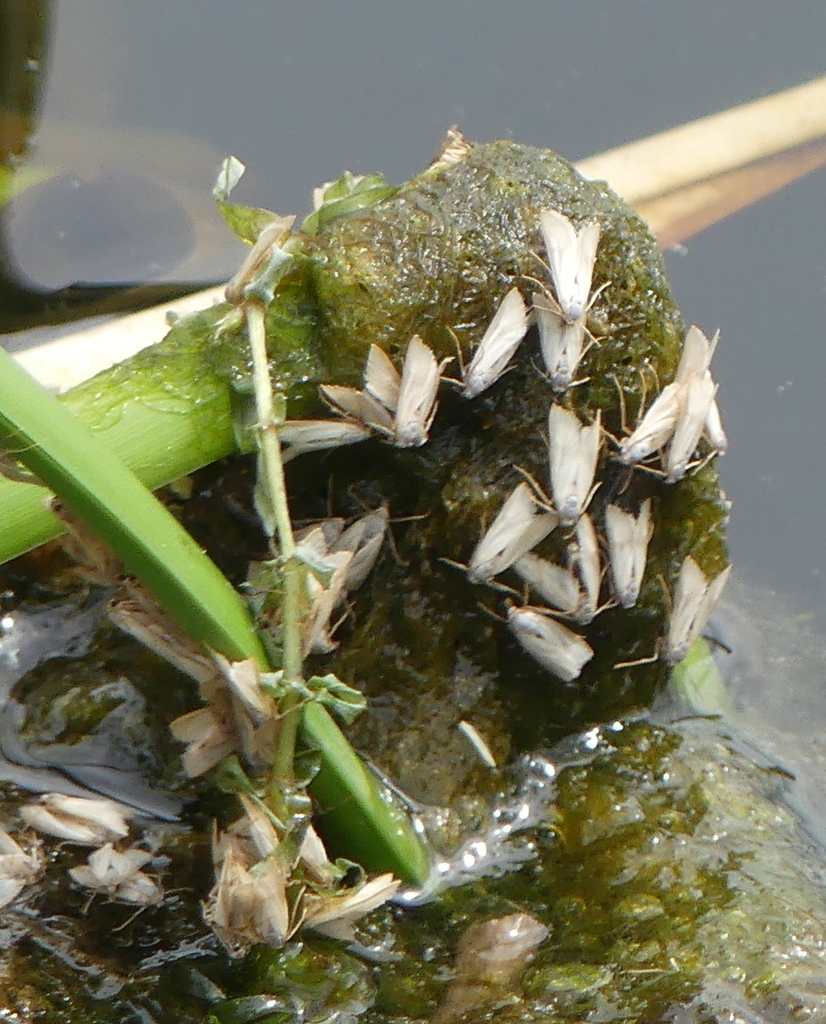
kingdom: Animalia
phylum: Arthropoda
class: Insecta
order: Lepidoptera
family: Crambidae
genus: Acentria
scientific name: Acentria ephemerella
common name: European water moth
